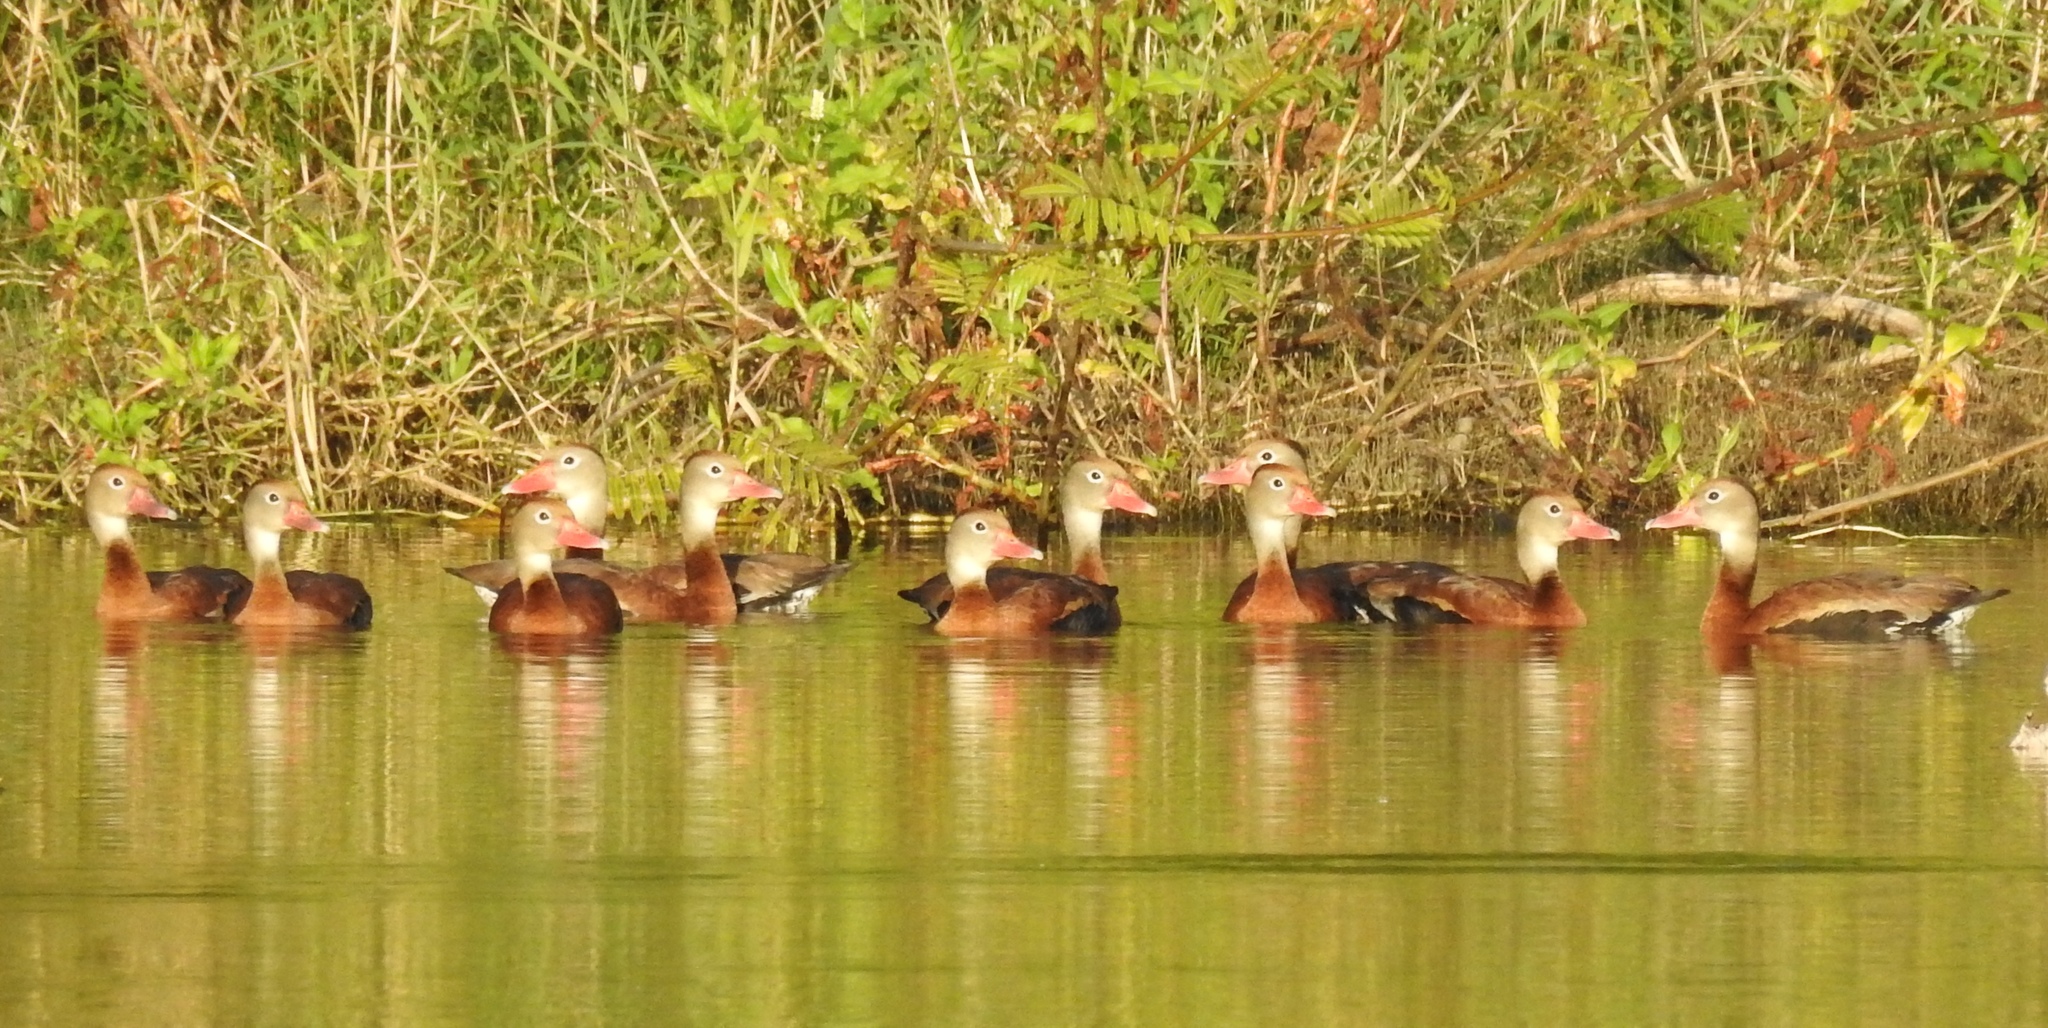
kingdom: Animalia
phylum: Chordata
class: Aves
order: Anseriformes
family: Anatidae
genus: Dendrocygna
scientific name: Dendrocygna autumnalis
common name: Black-bellied whistling duck
